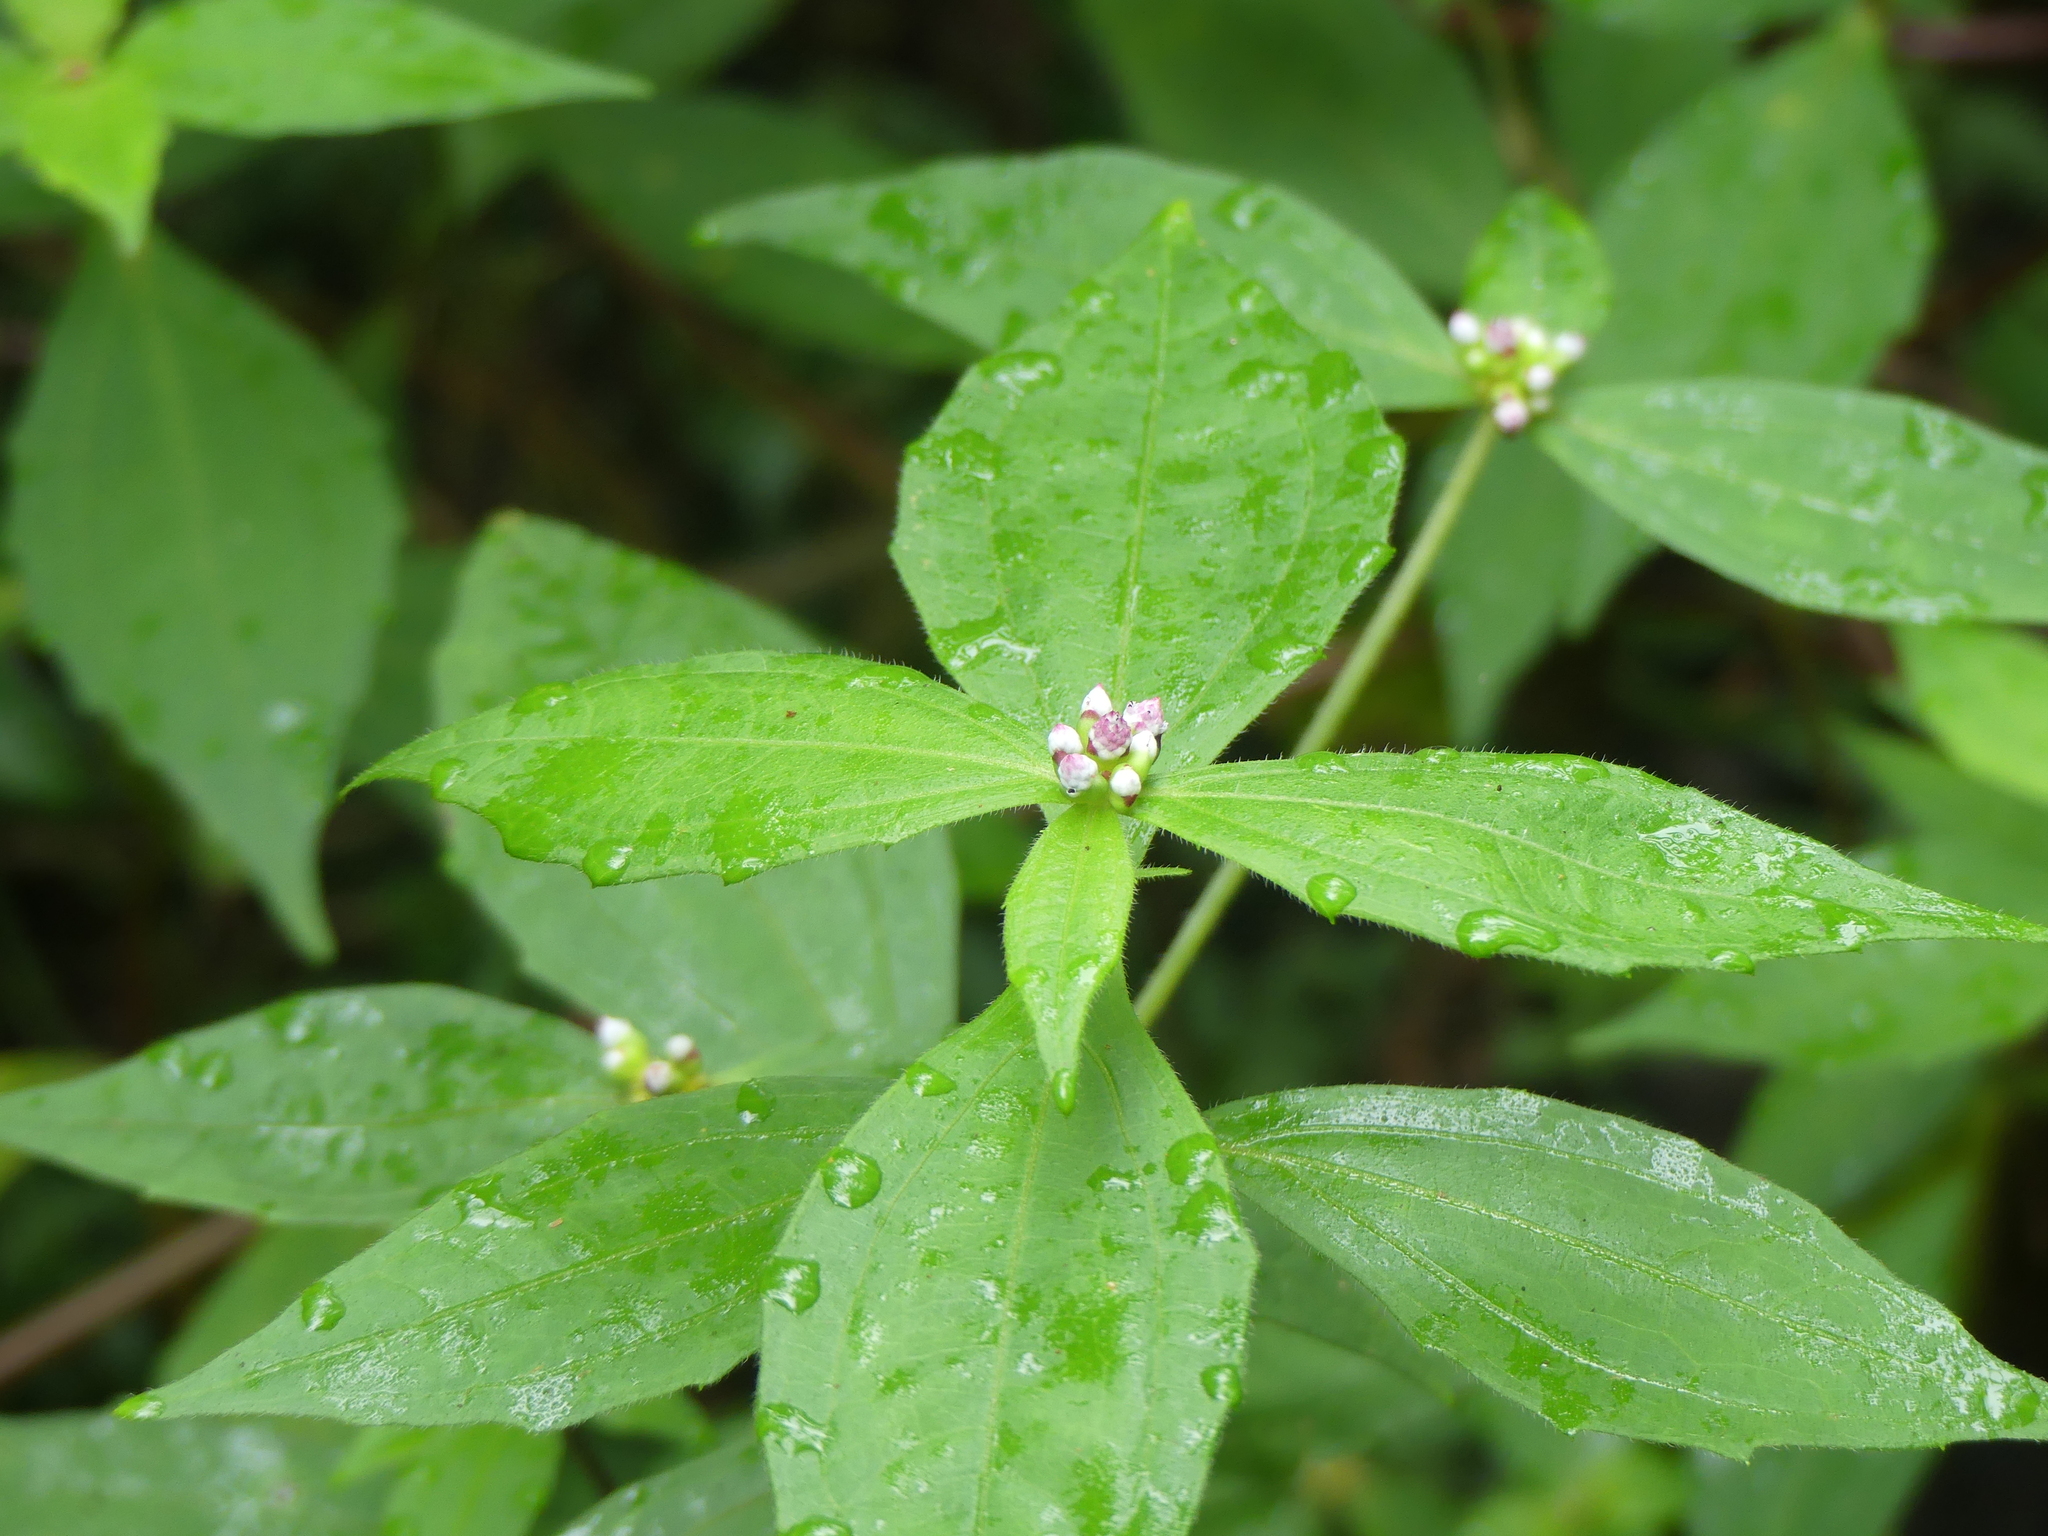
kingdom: Plantae
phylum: Tracheophyta
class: Magnoliopsida
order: Asterales
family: Asteraceae
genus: Ichthyothere
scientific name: Ichthyothere granvillei
